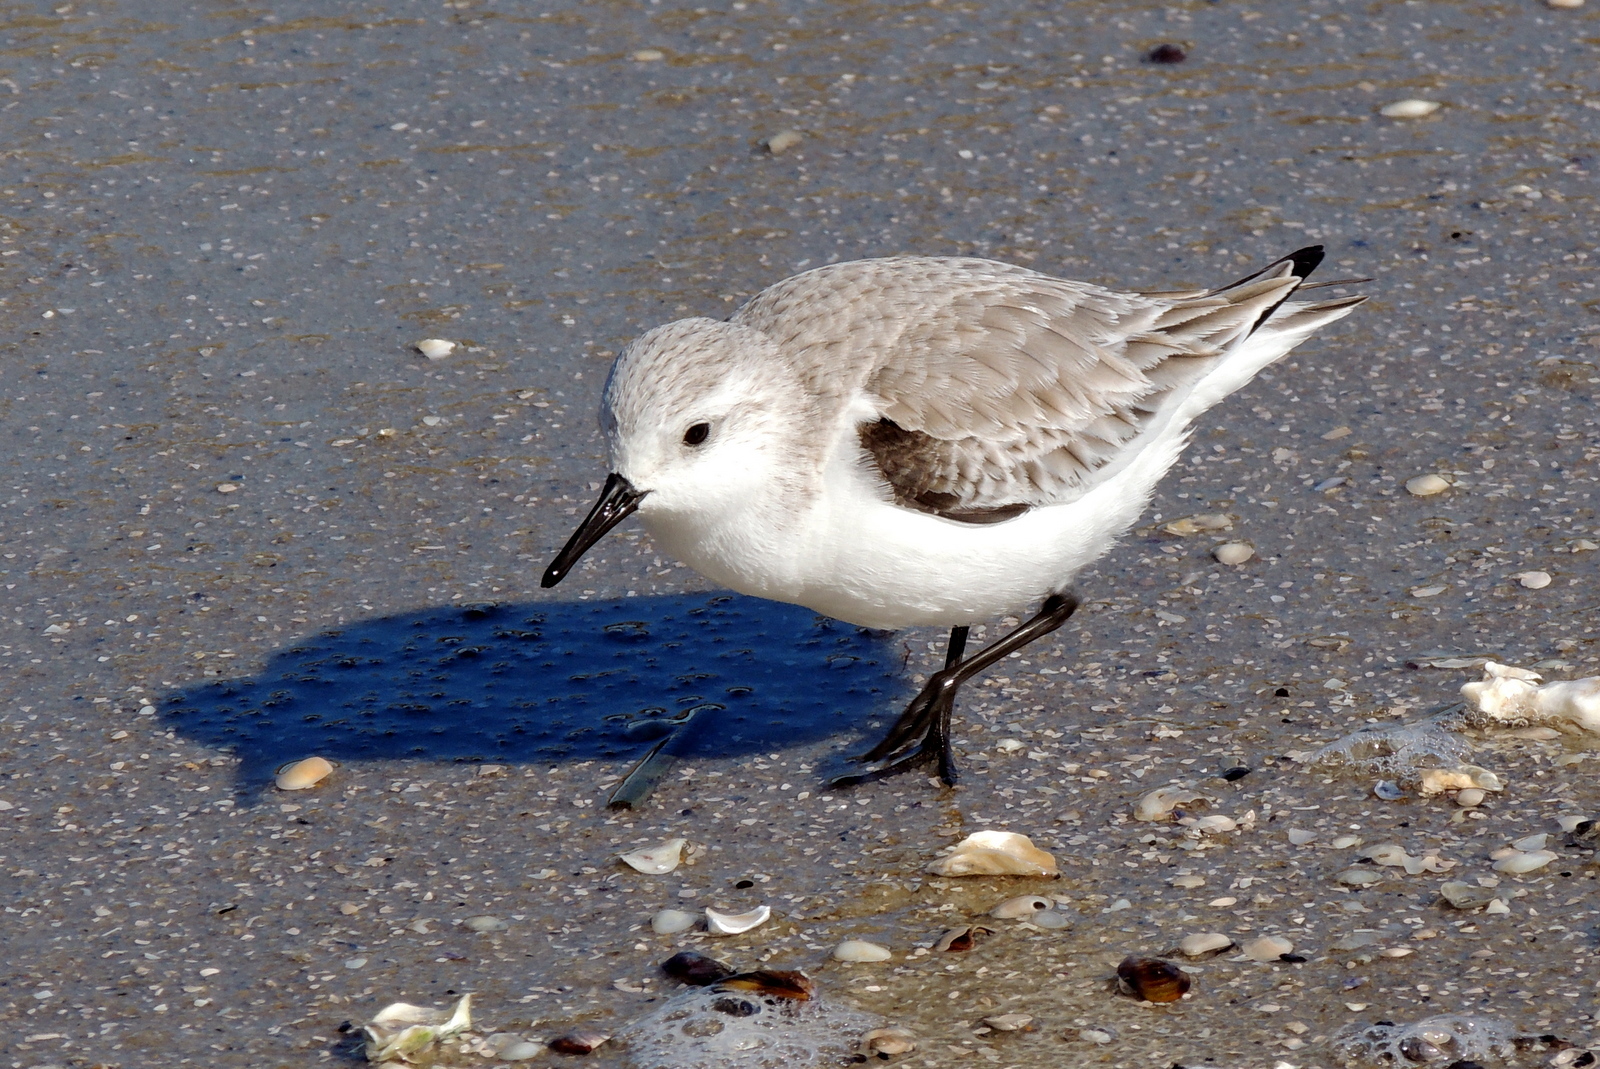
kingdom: Animalia
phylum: Chordata
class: Aves
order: Charadriiformes
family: Scolopacidae
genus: Calidris
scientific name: Calidris alba
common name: Sanderling
